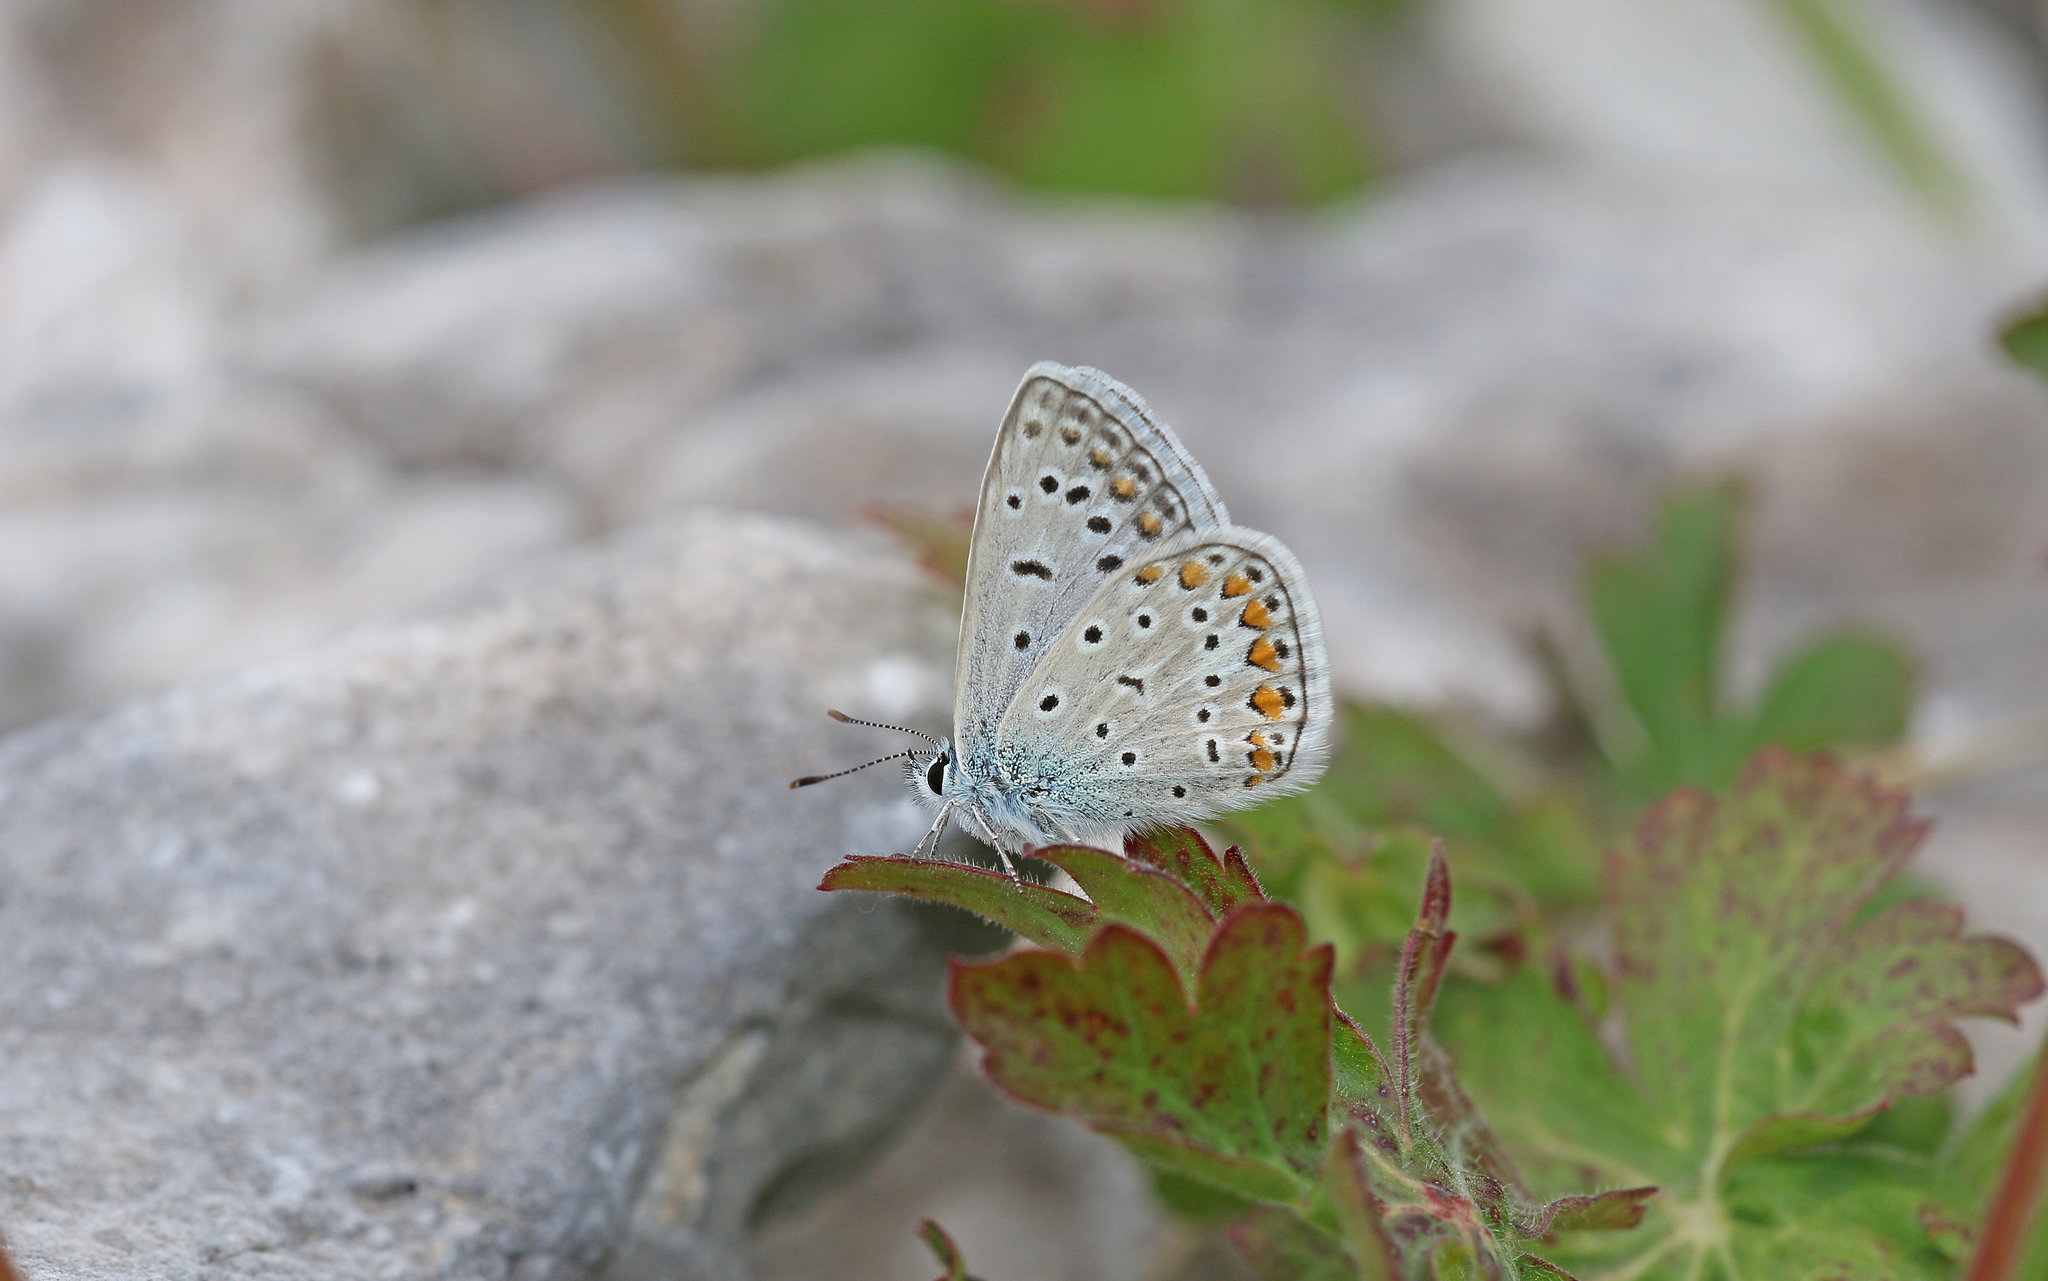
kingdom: Animalia
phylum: Arthropoda
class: Insecta
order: Lepidoptera
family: Lycaenidae
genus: Polyommatus
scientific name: Polyommatus icarus
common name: Common blue
